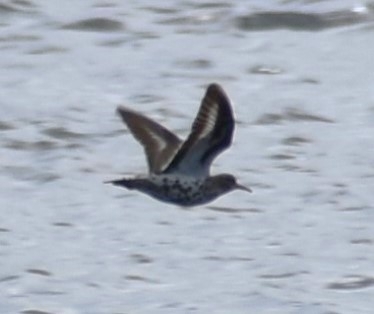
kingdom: Animalia
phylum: Chordata
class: Aves
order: Charadriiformes
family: Scolopacidae
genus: Actitis
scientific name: Actitis macularius
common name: Spotted sandpiper
